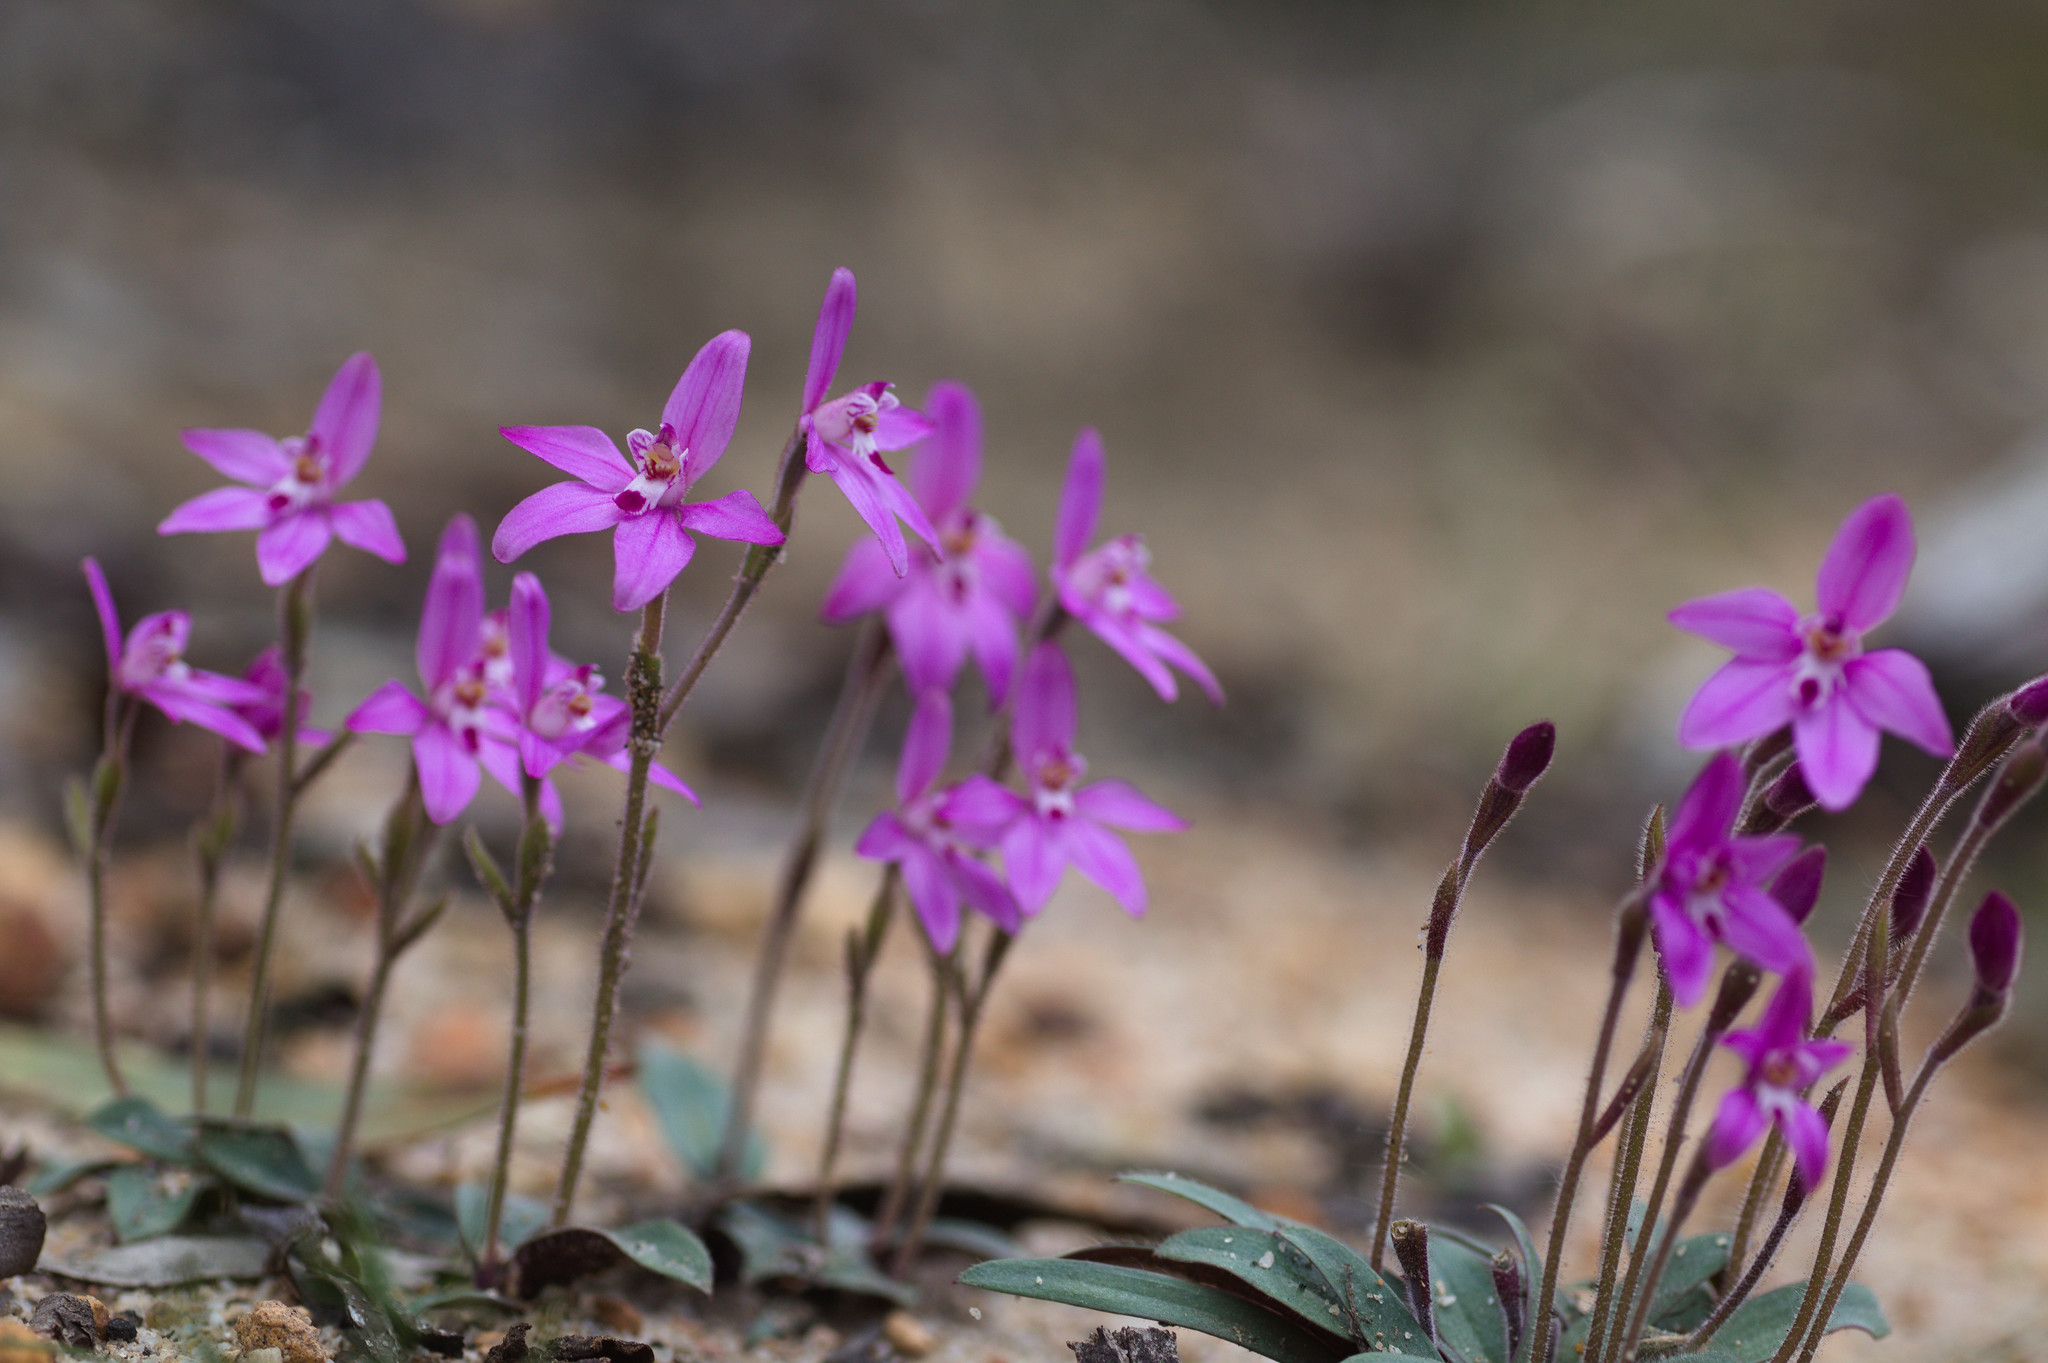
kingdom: Plantae
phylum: Tracheophyta
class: Liliopsida
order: Asparagales
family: Orchidaceae
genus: Caladenia
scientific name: Caladenia reptans
